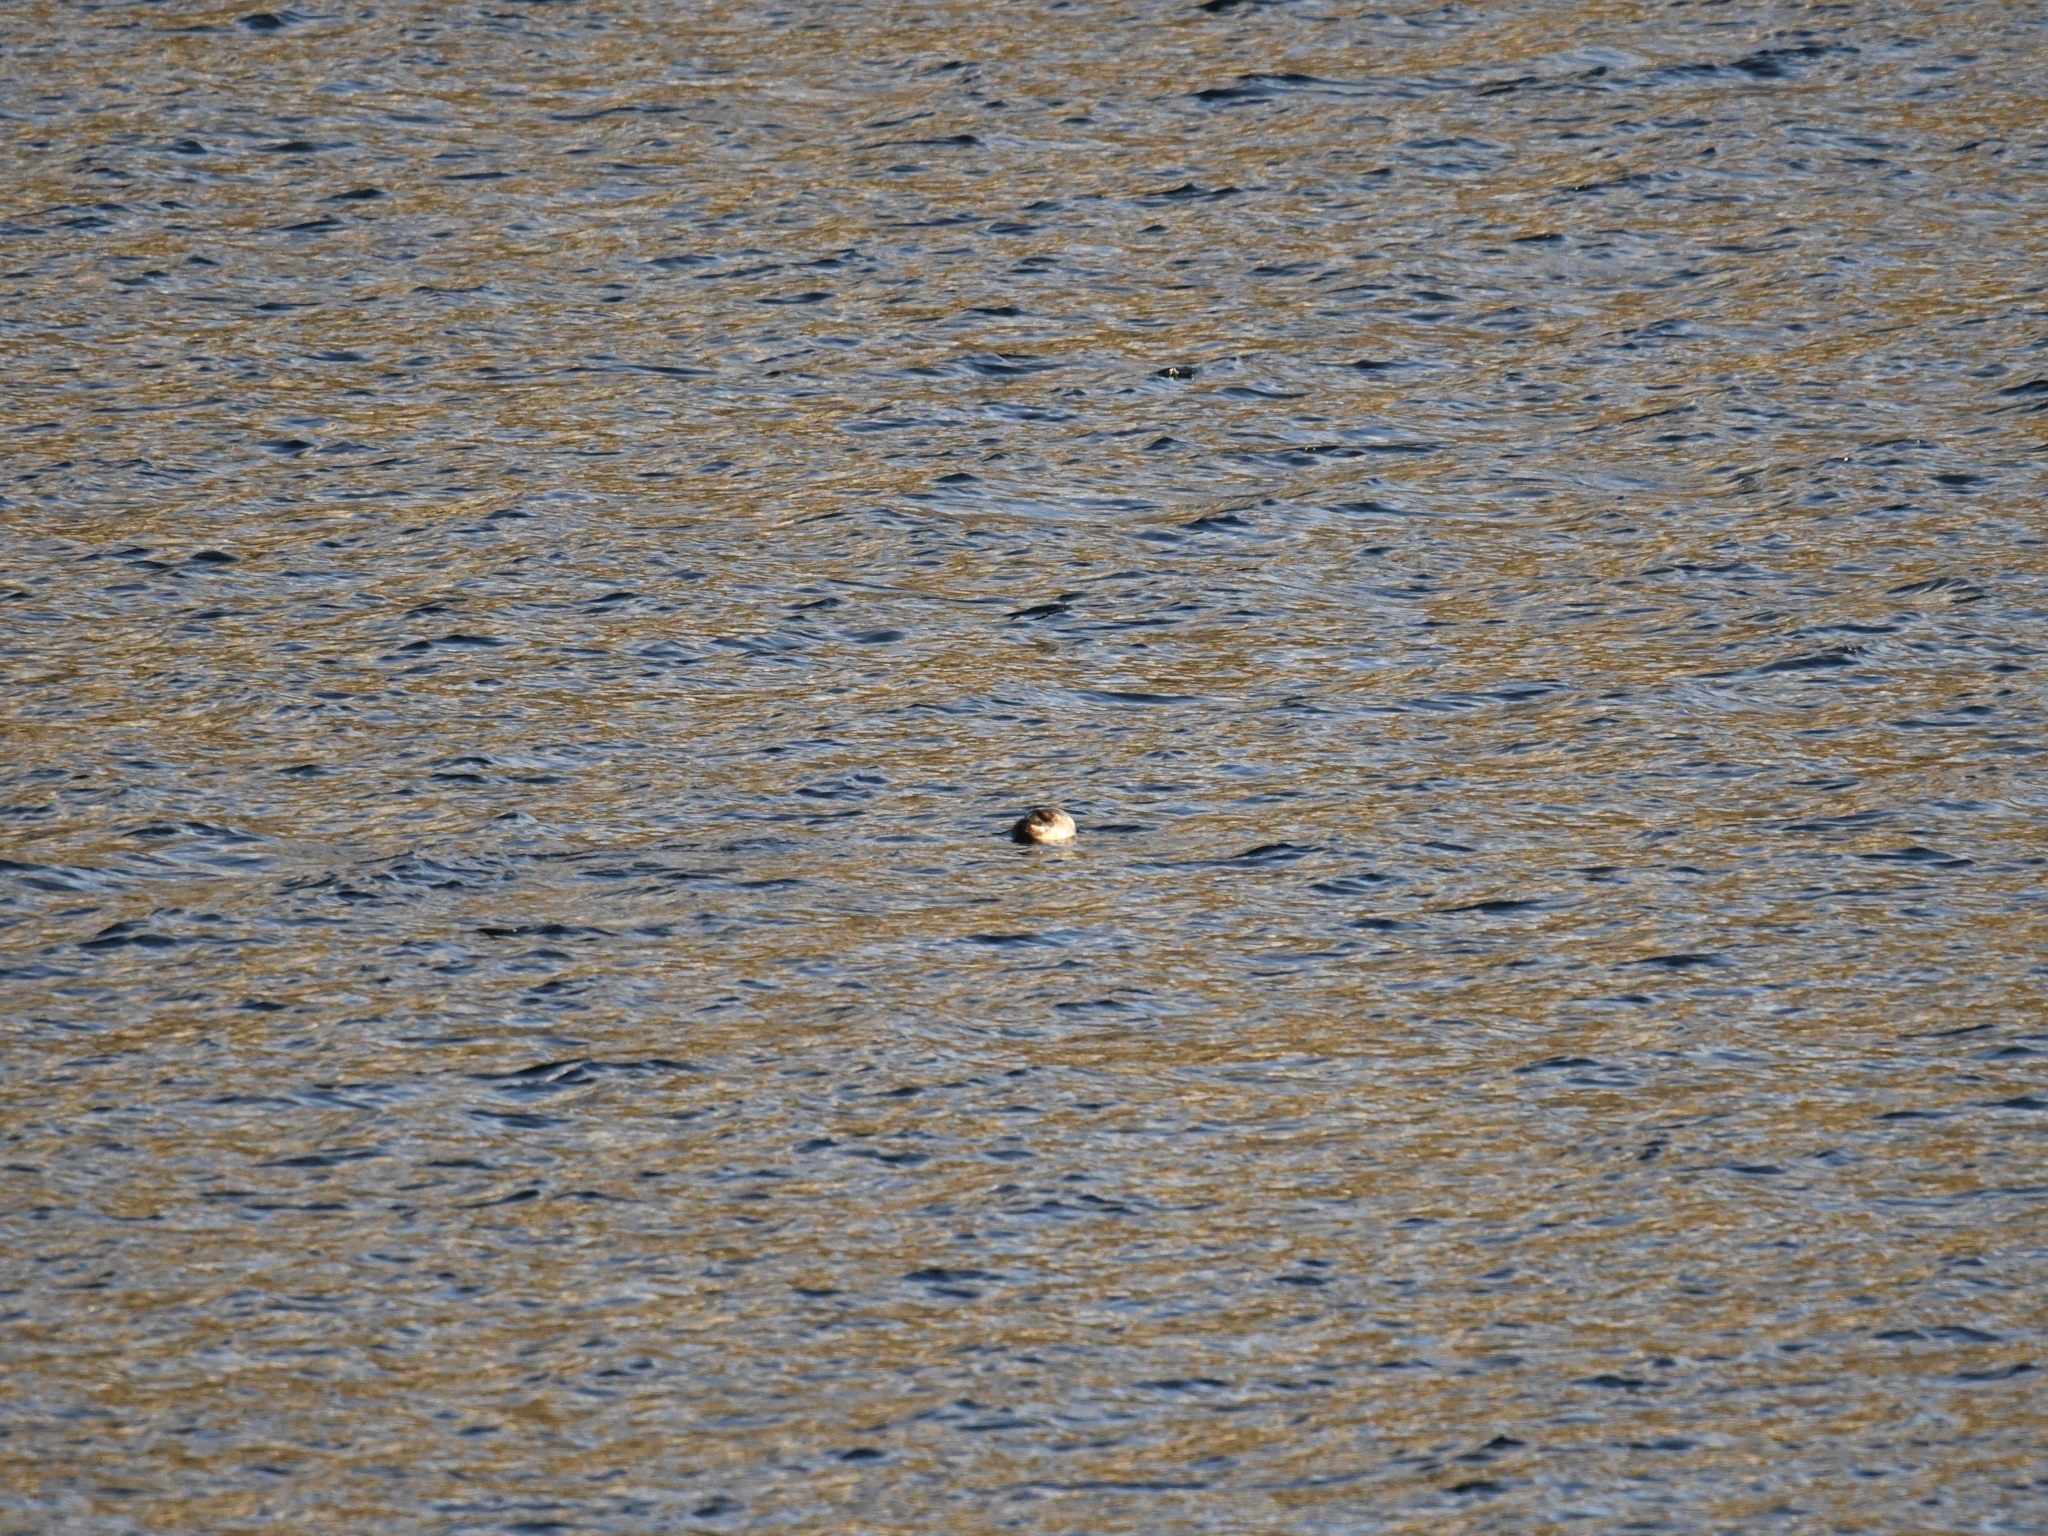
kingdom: Animalia
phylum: Chordata
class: Mammalia
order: Carnivora
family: Phocidae
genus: Phoca
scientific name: Phoca vitulina
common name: Harbor seal
